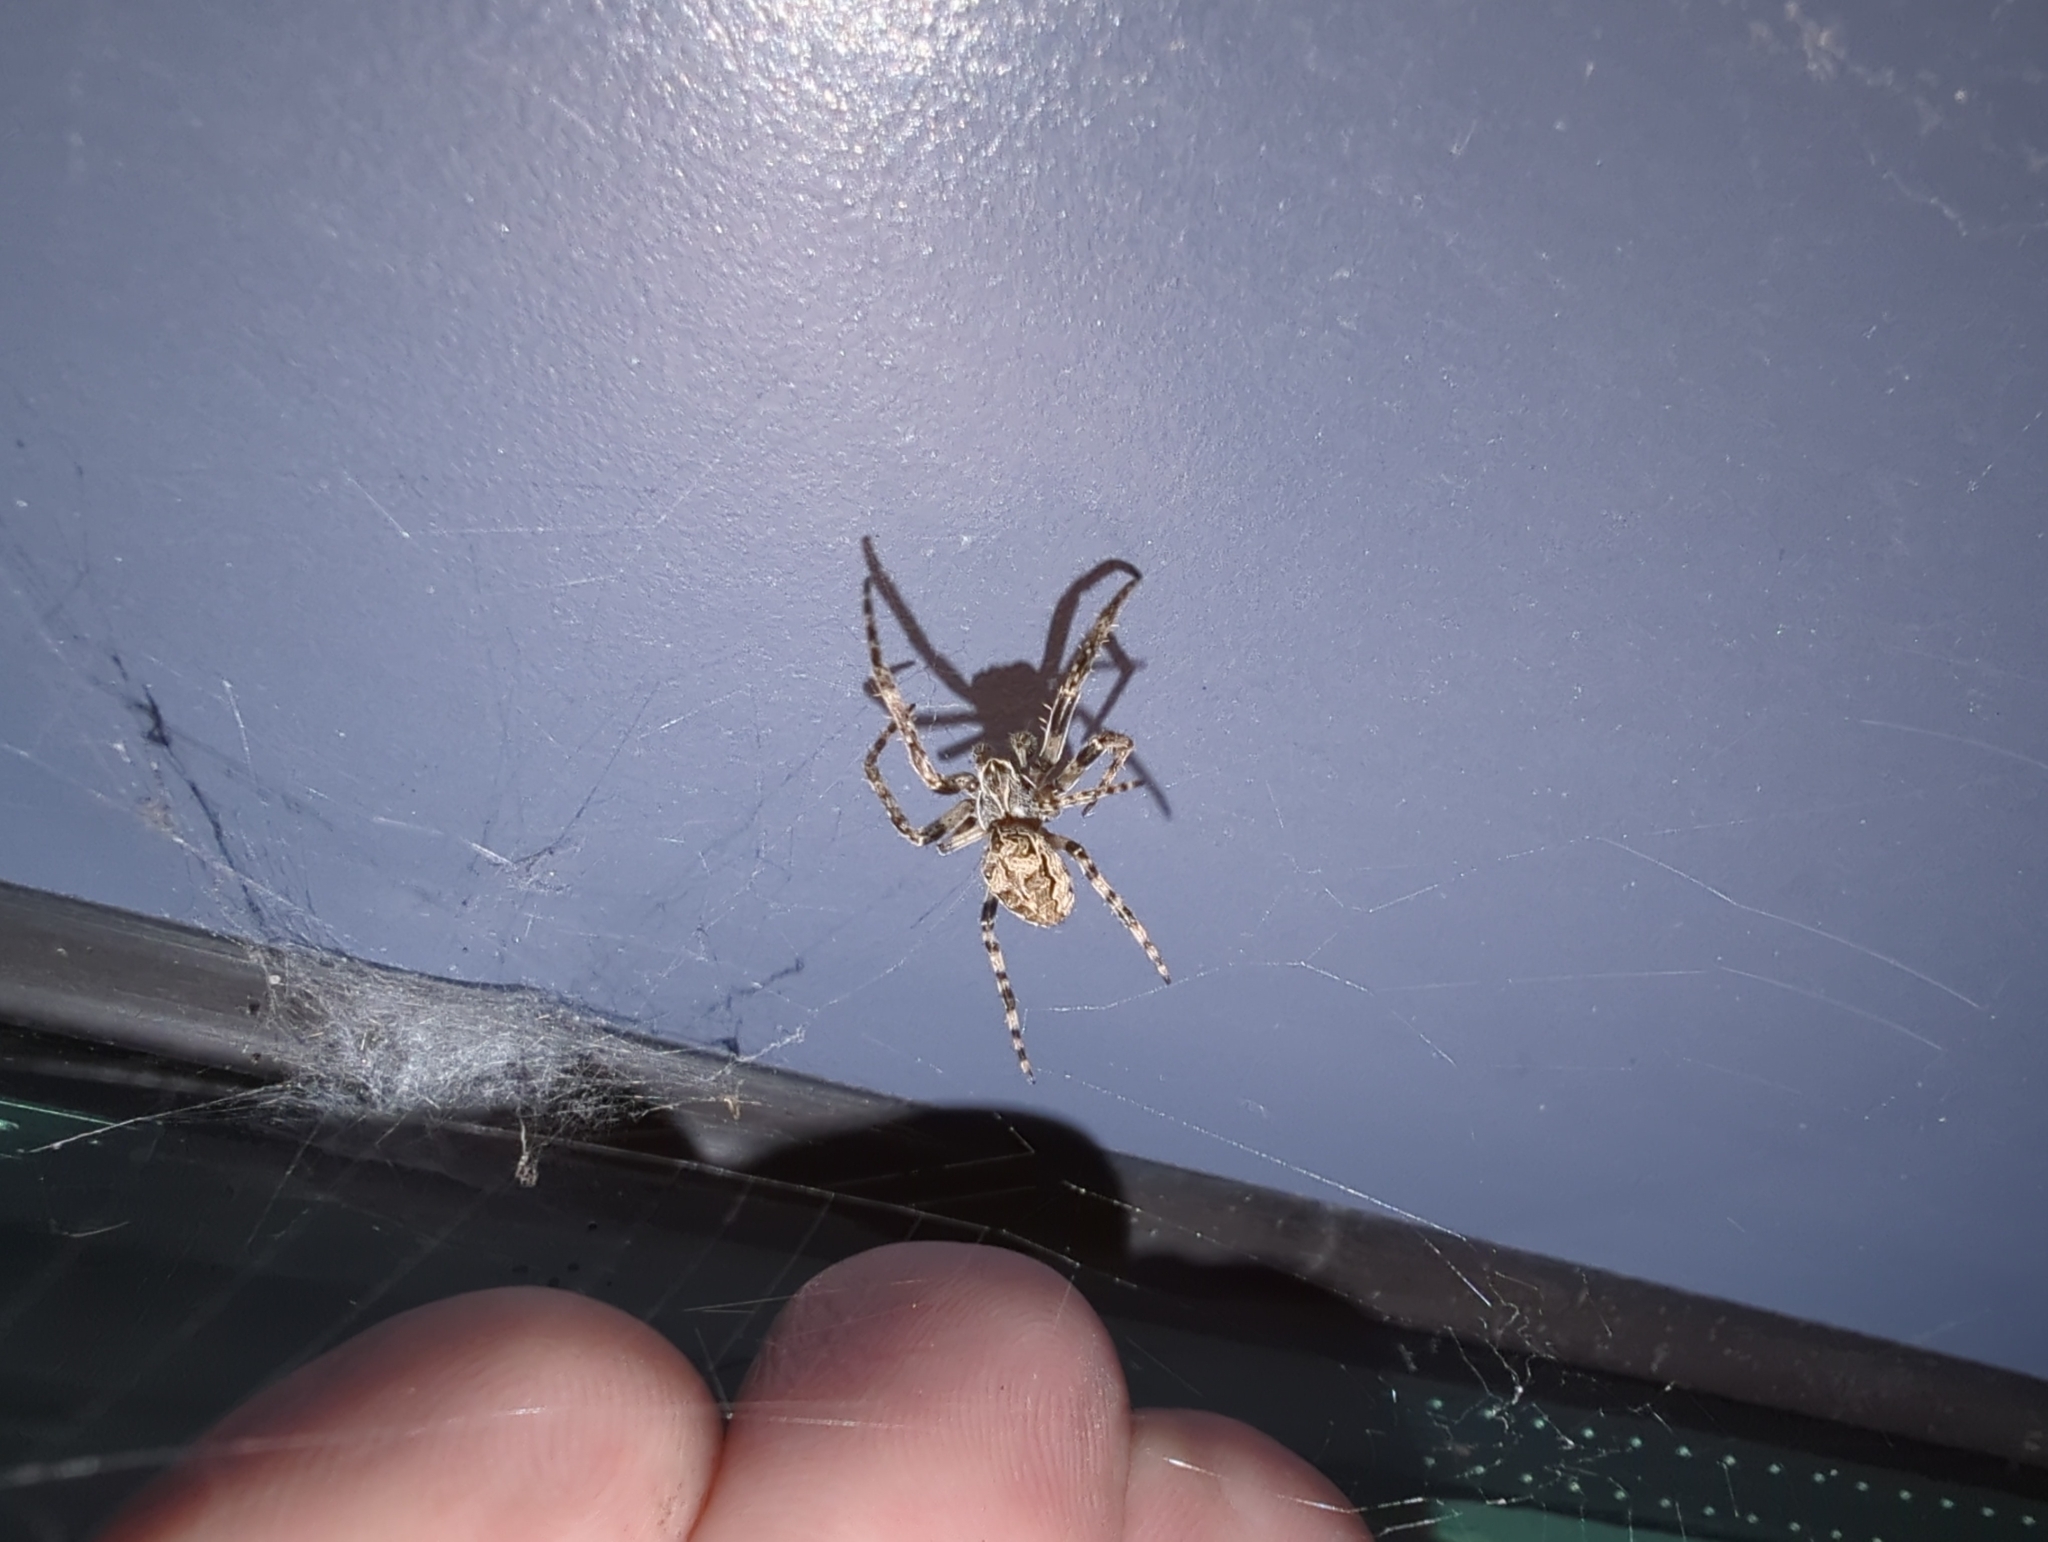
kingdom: Animalia
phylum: Arthropoda
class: Arachnida
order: Araneae
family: Araneidae
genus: Larinioides
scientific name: Larinioides sclopetarius
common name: Bridge orbweaver
